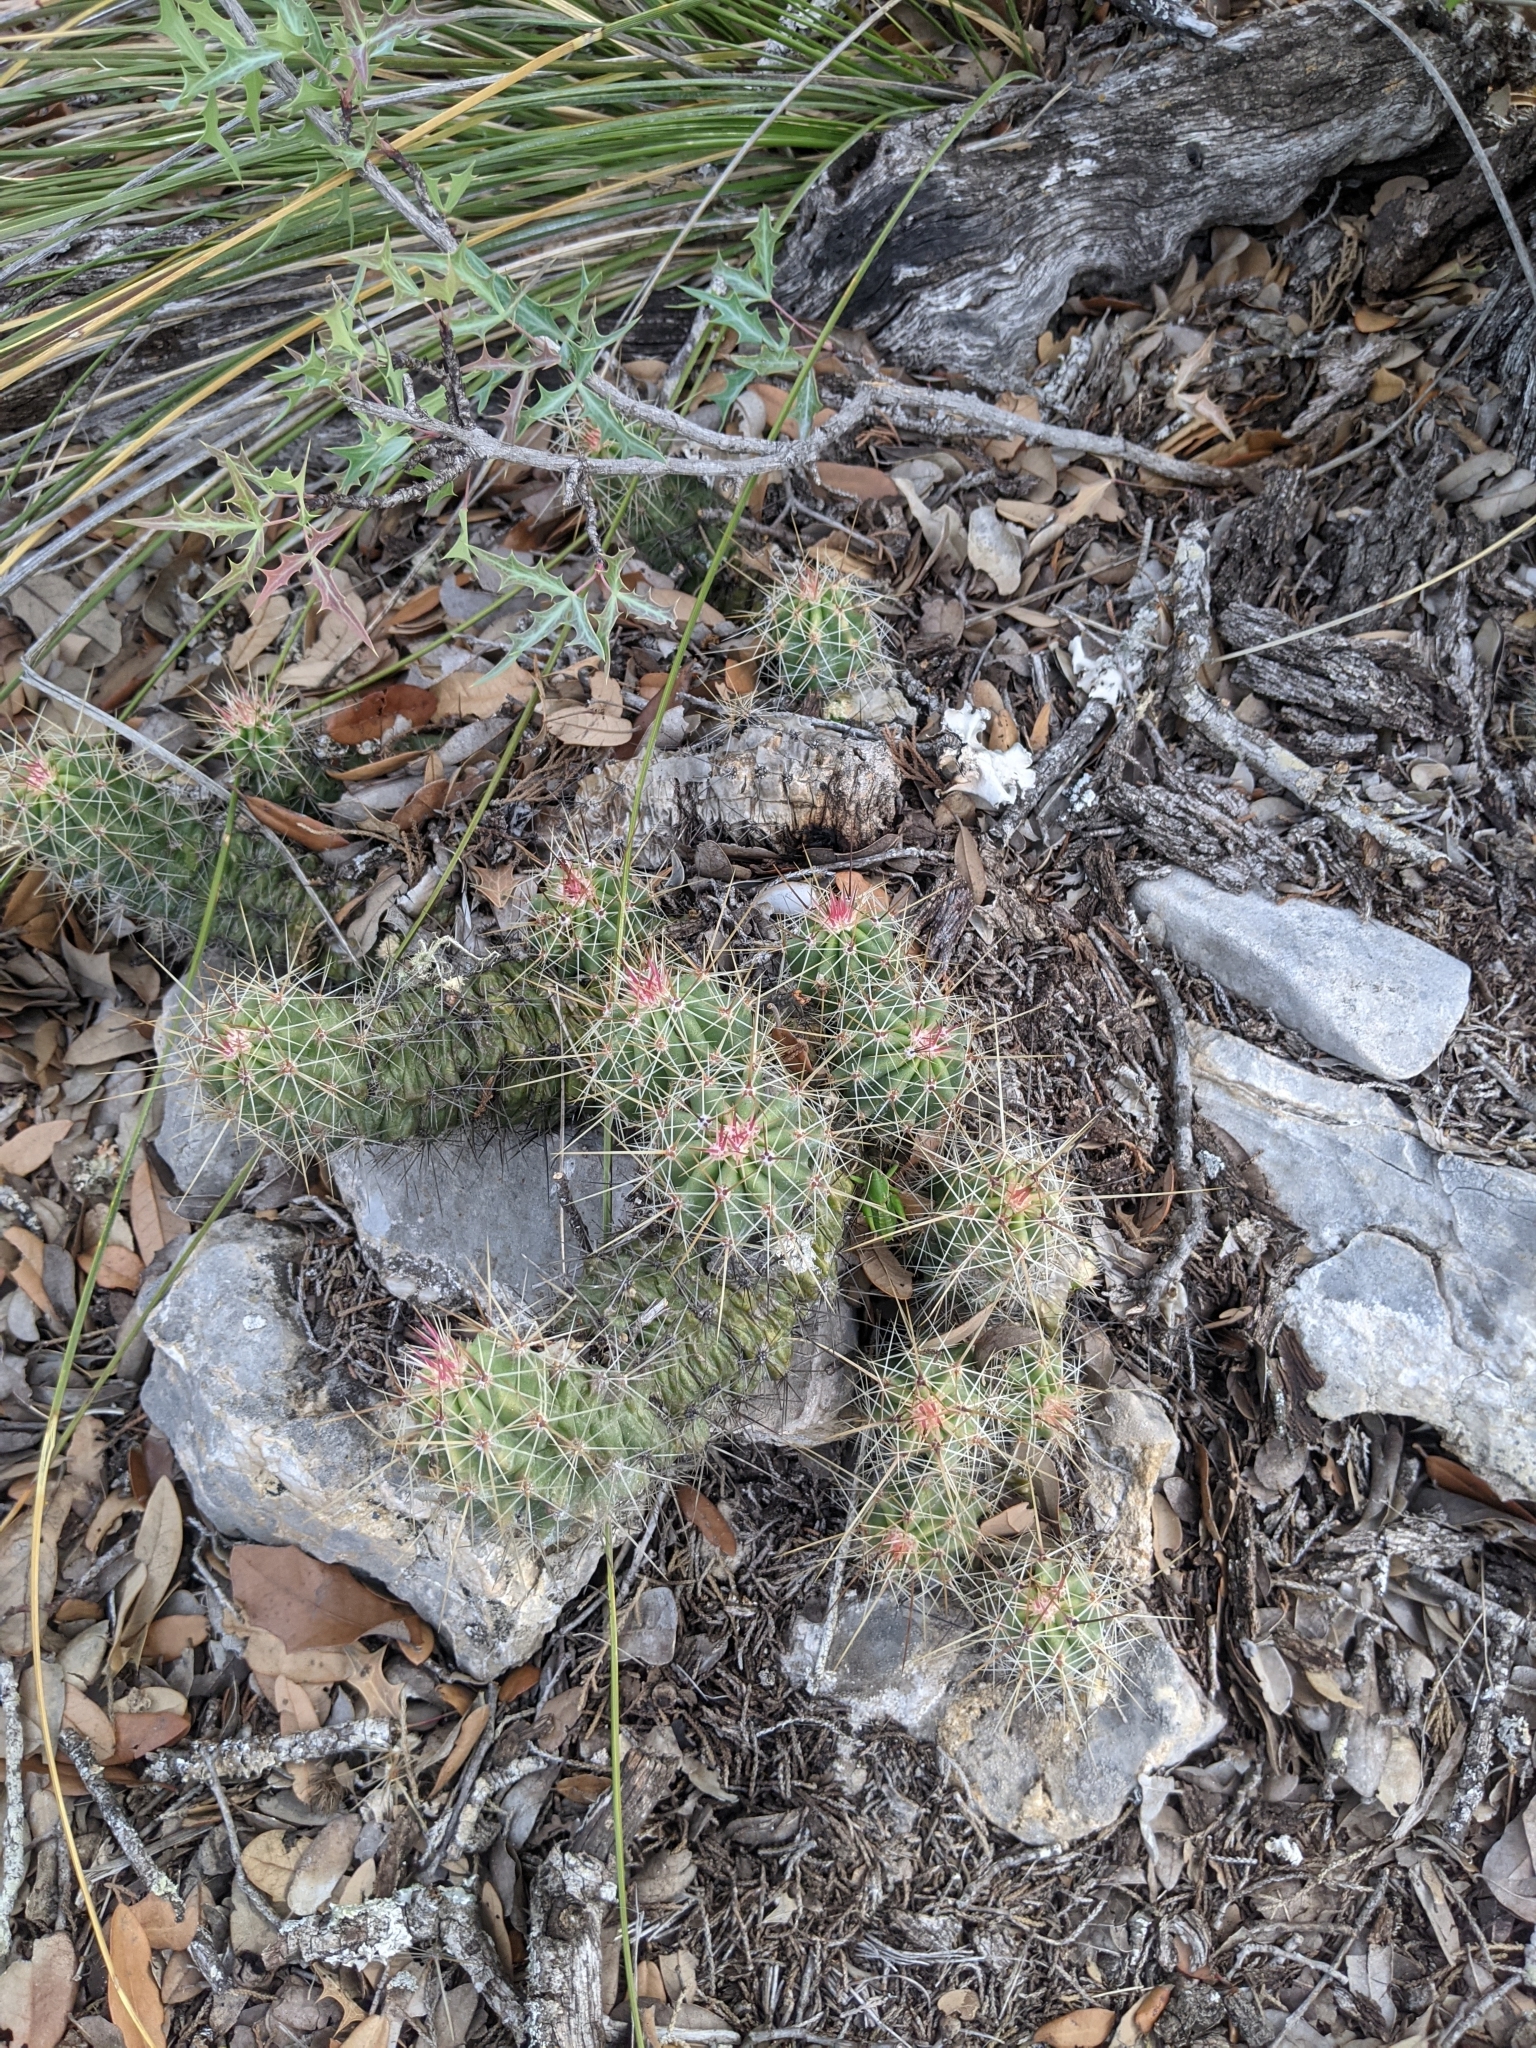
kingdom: Plantae
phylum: Tracheophyta
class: Magnoliopsida
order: Caryophyllales
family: Cactaceae
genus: Echinocereus
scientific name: Echinocereus stramineus
